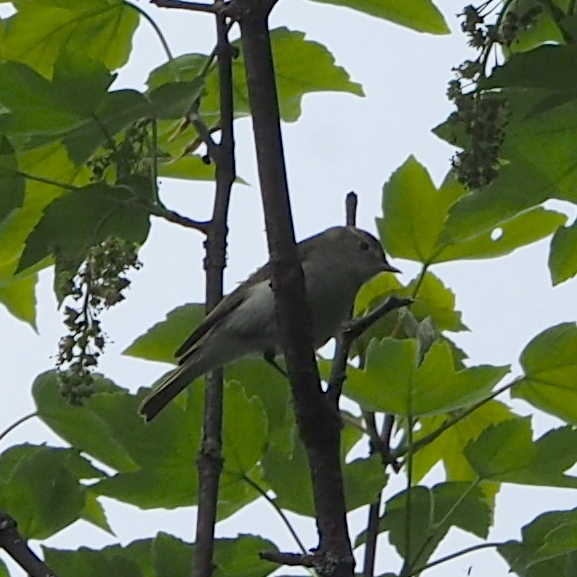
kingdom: Animalia
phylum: Chordata
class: Aves
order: Passeriformes
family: Phylloscopidae
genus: Phylloscopus
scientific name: Phylloscopus bonelli
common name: Western bonelli's warbler
